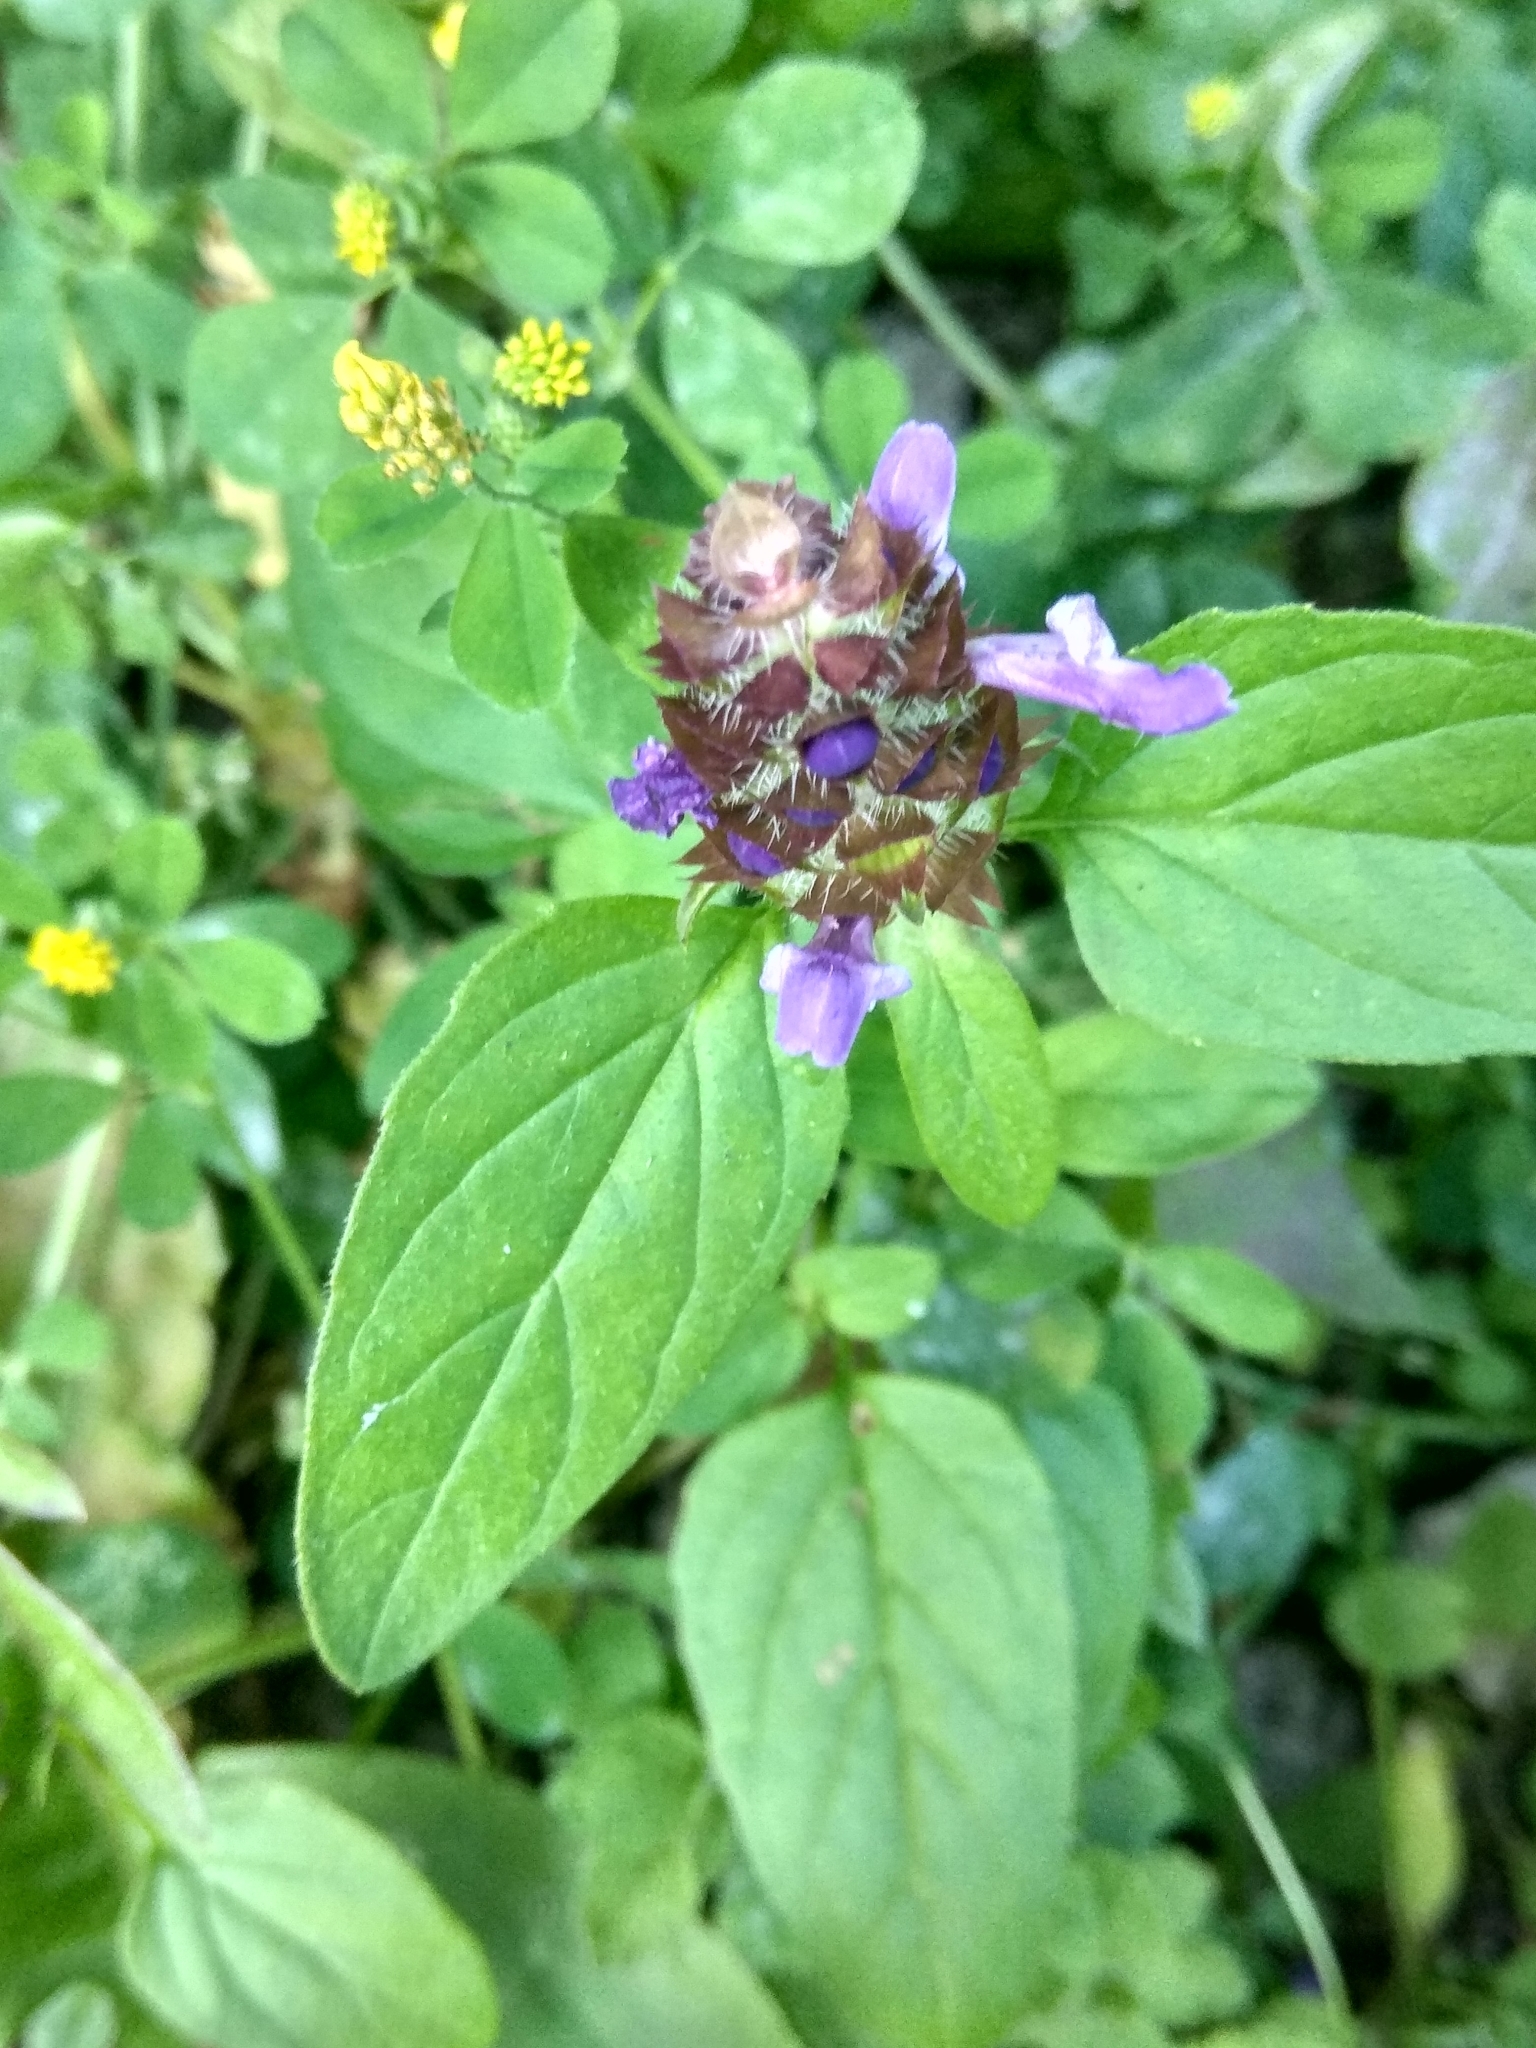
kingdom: Plantae
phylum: Tracheophyta
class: Magnoliopsida
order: Lamiales
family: Lamiaceae
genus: Prunella
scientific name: Prunella vulgaris
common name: Heal-all
